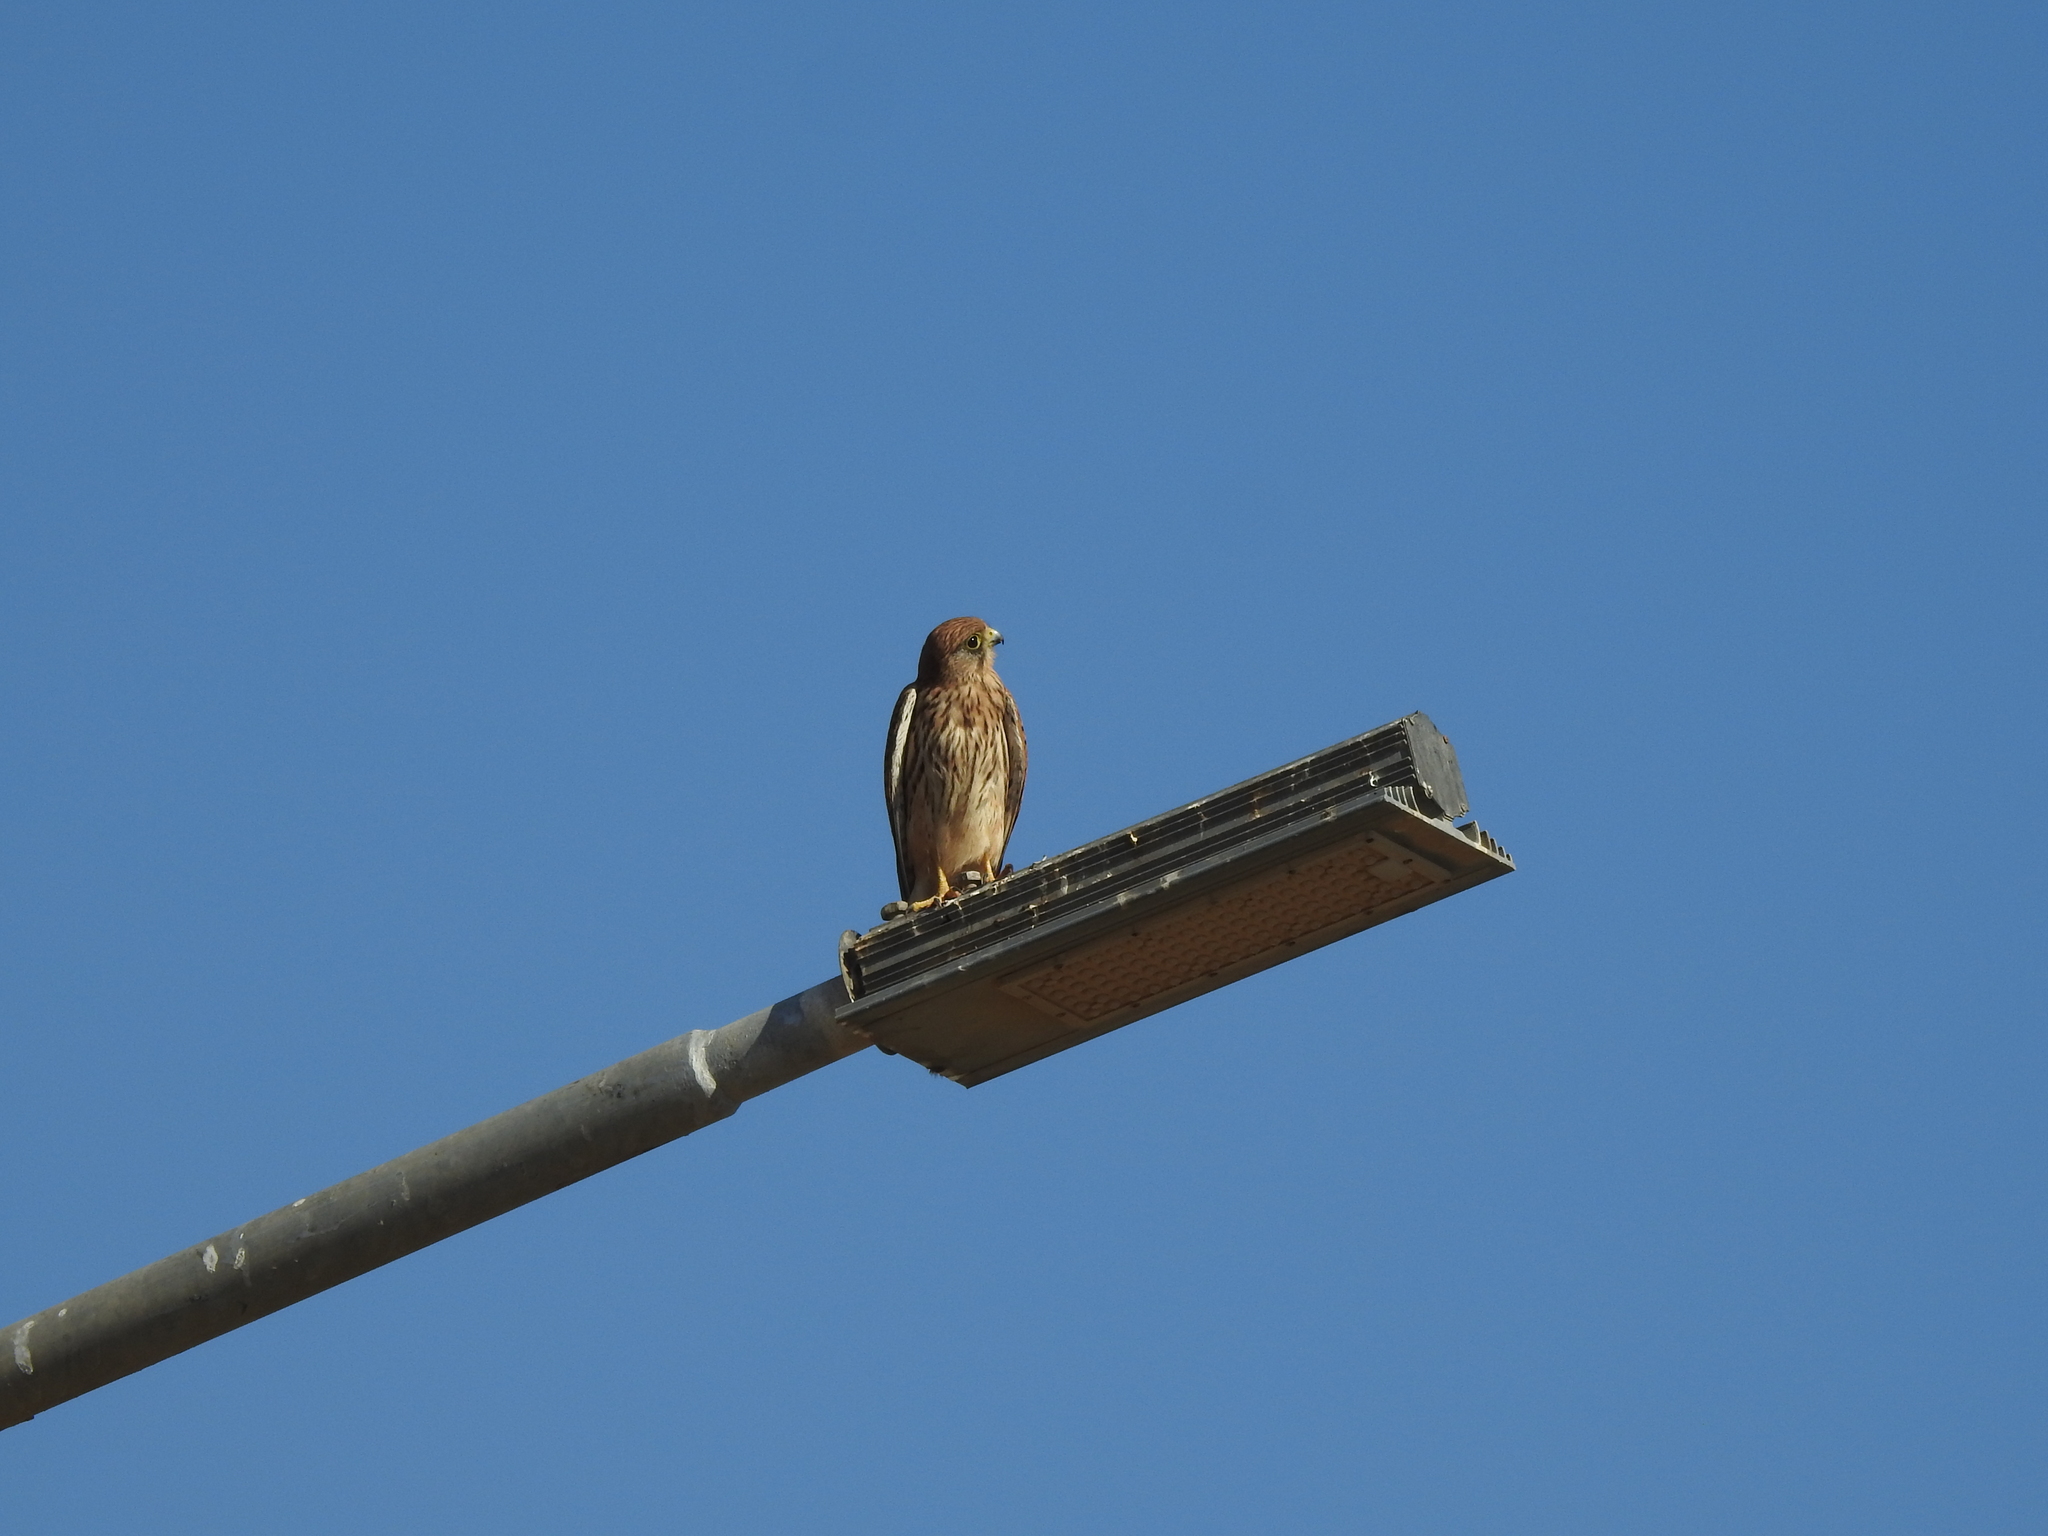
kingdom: Animalia
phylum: Chordata
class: Aves
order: Falconiformes
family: Falconidae
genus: Falco
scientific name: Falco tinnunculus
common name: Common kestrel
